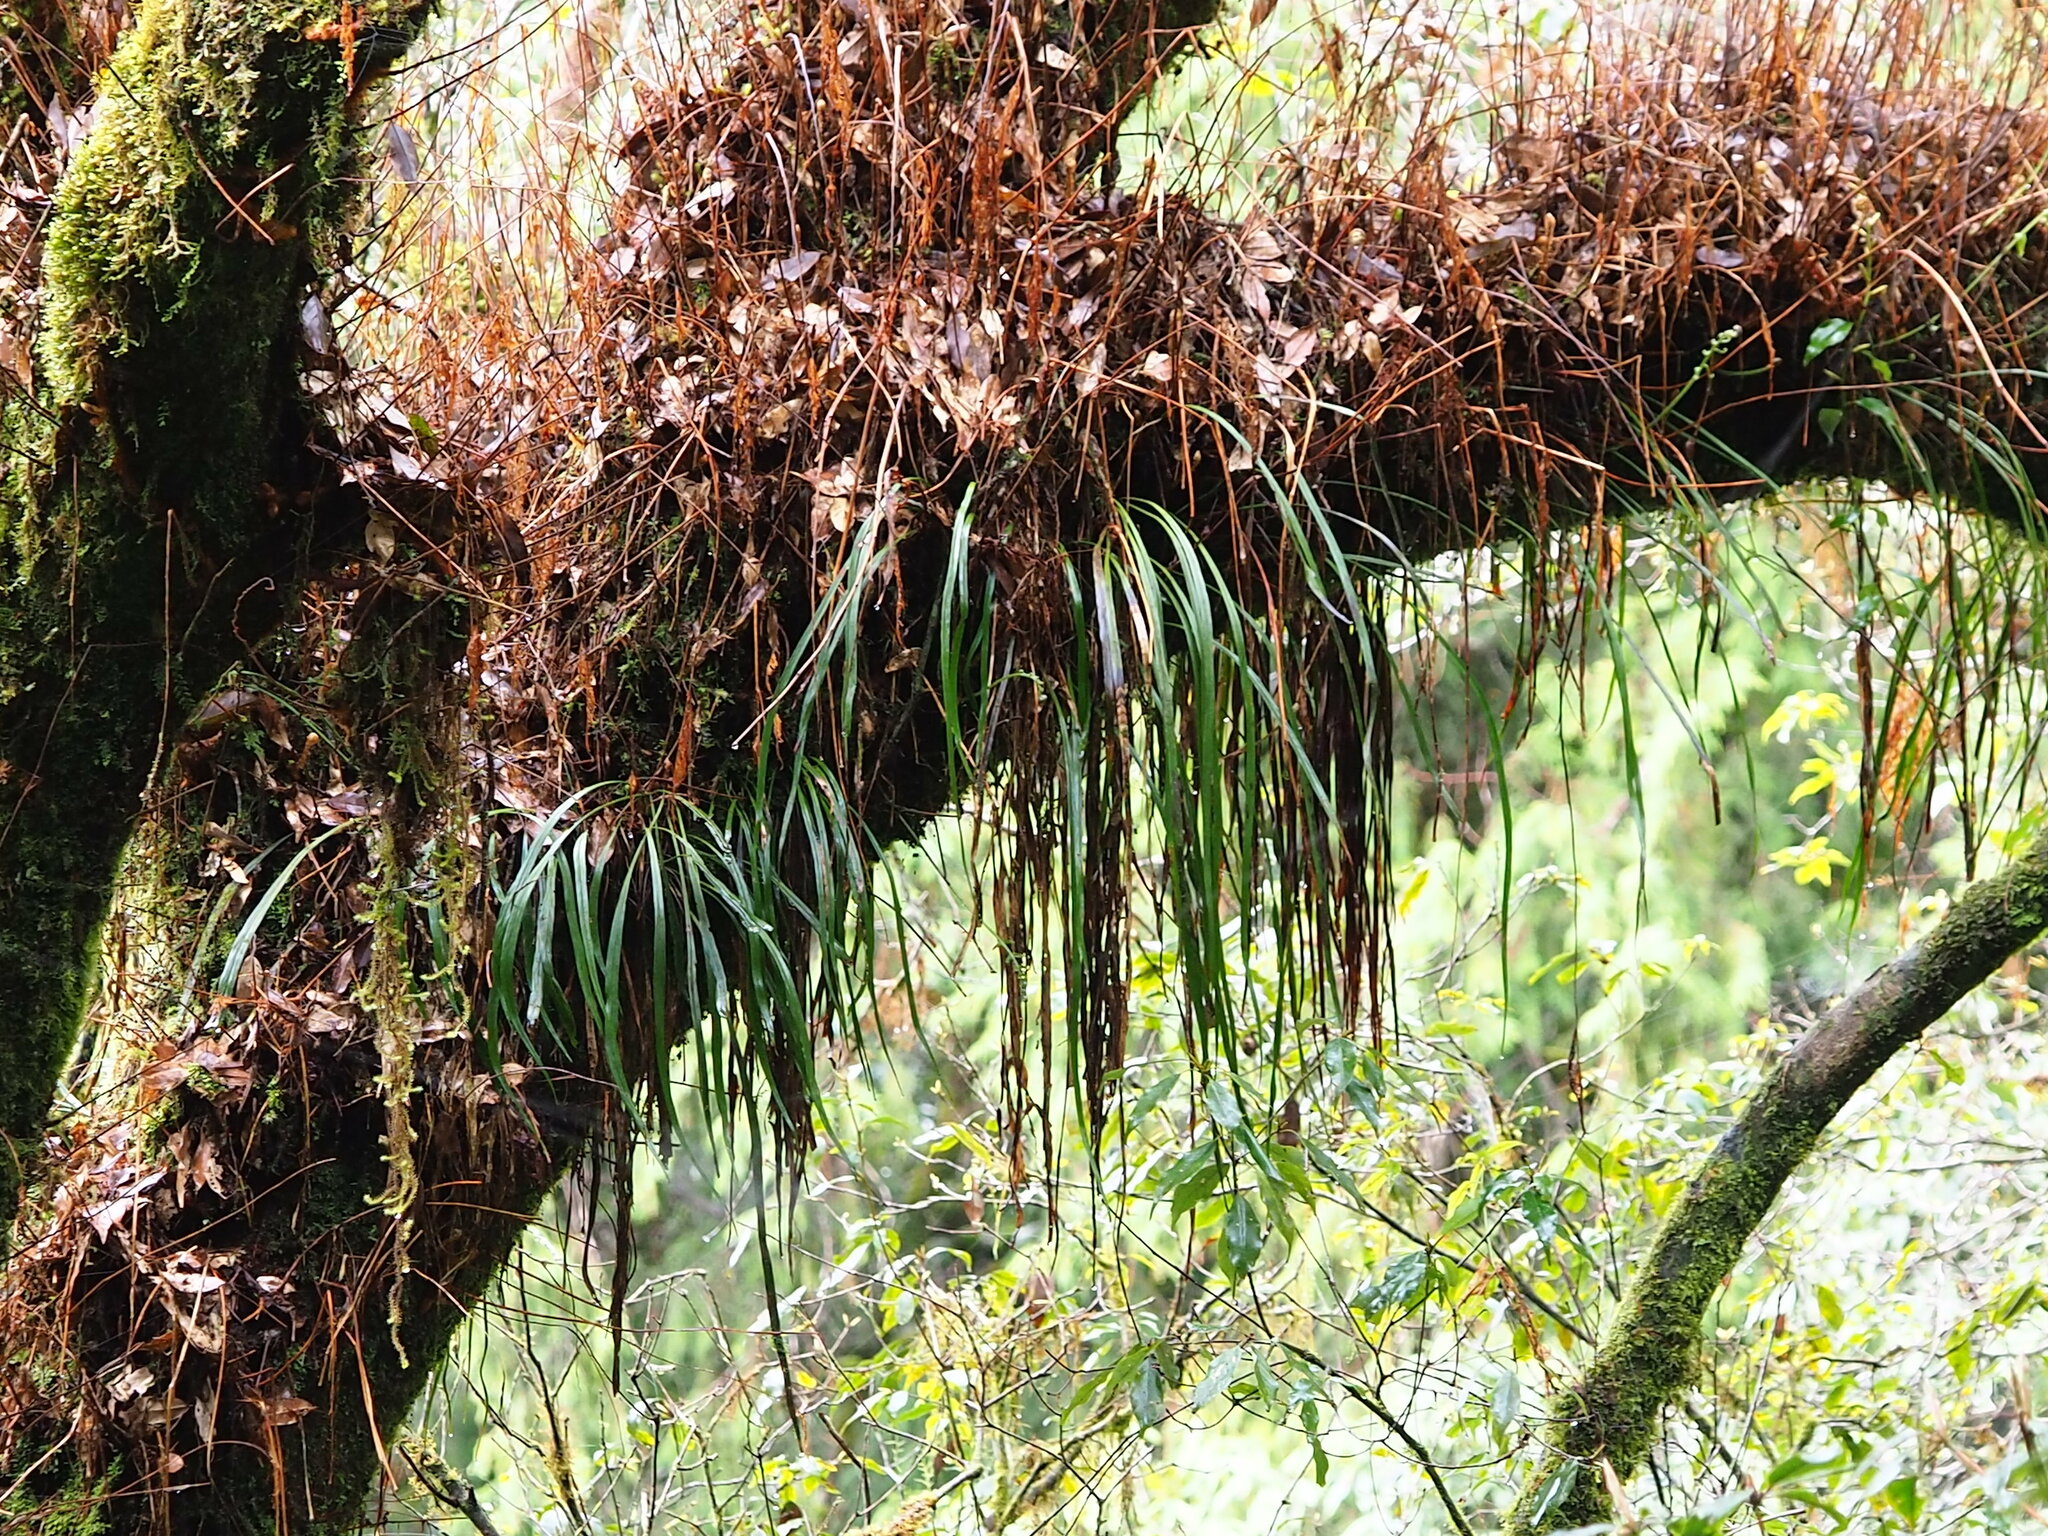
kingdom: Plantae
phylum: Tracheophyta
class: Polypodiopsida
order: Polypodiales
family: Pteridaceae
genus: Haplopteris
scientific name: Haplopteris elongata
